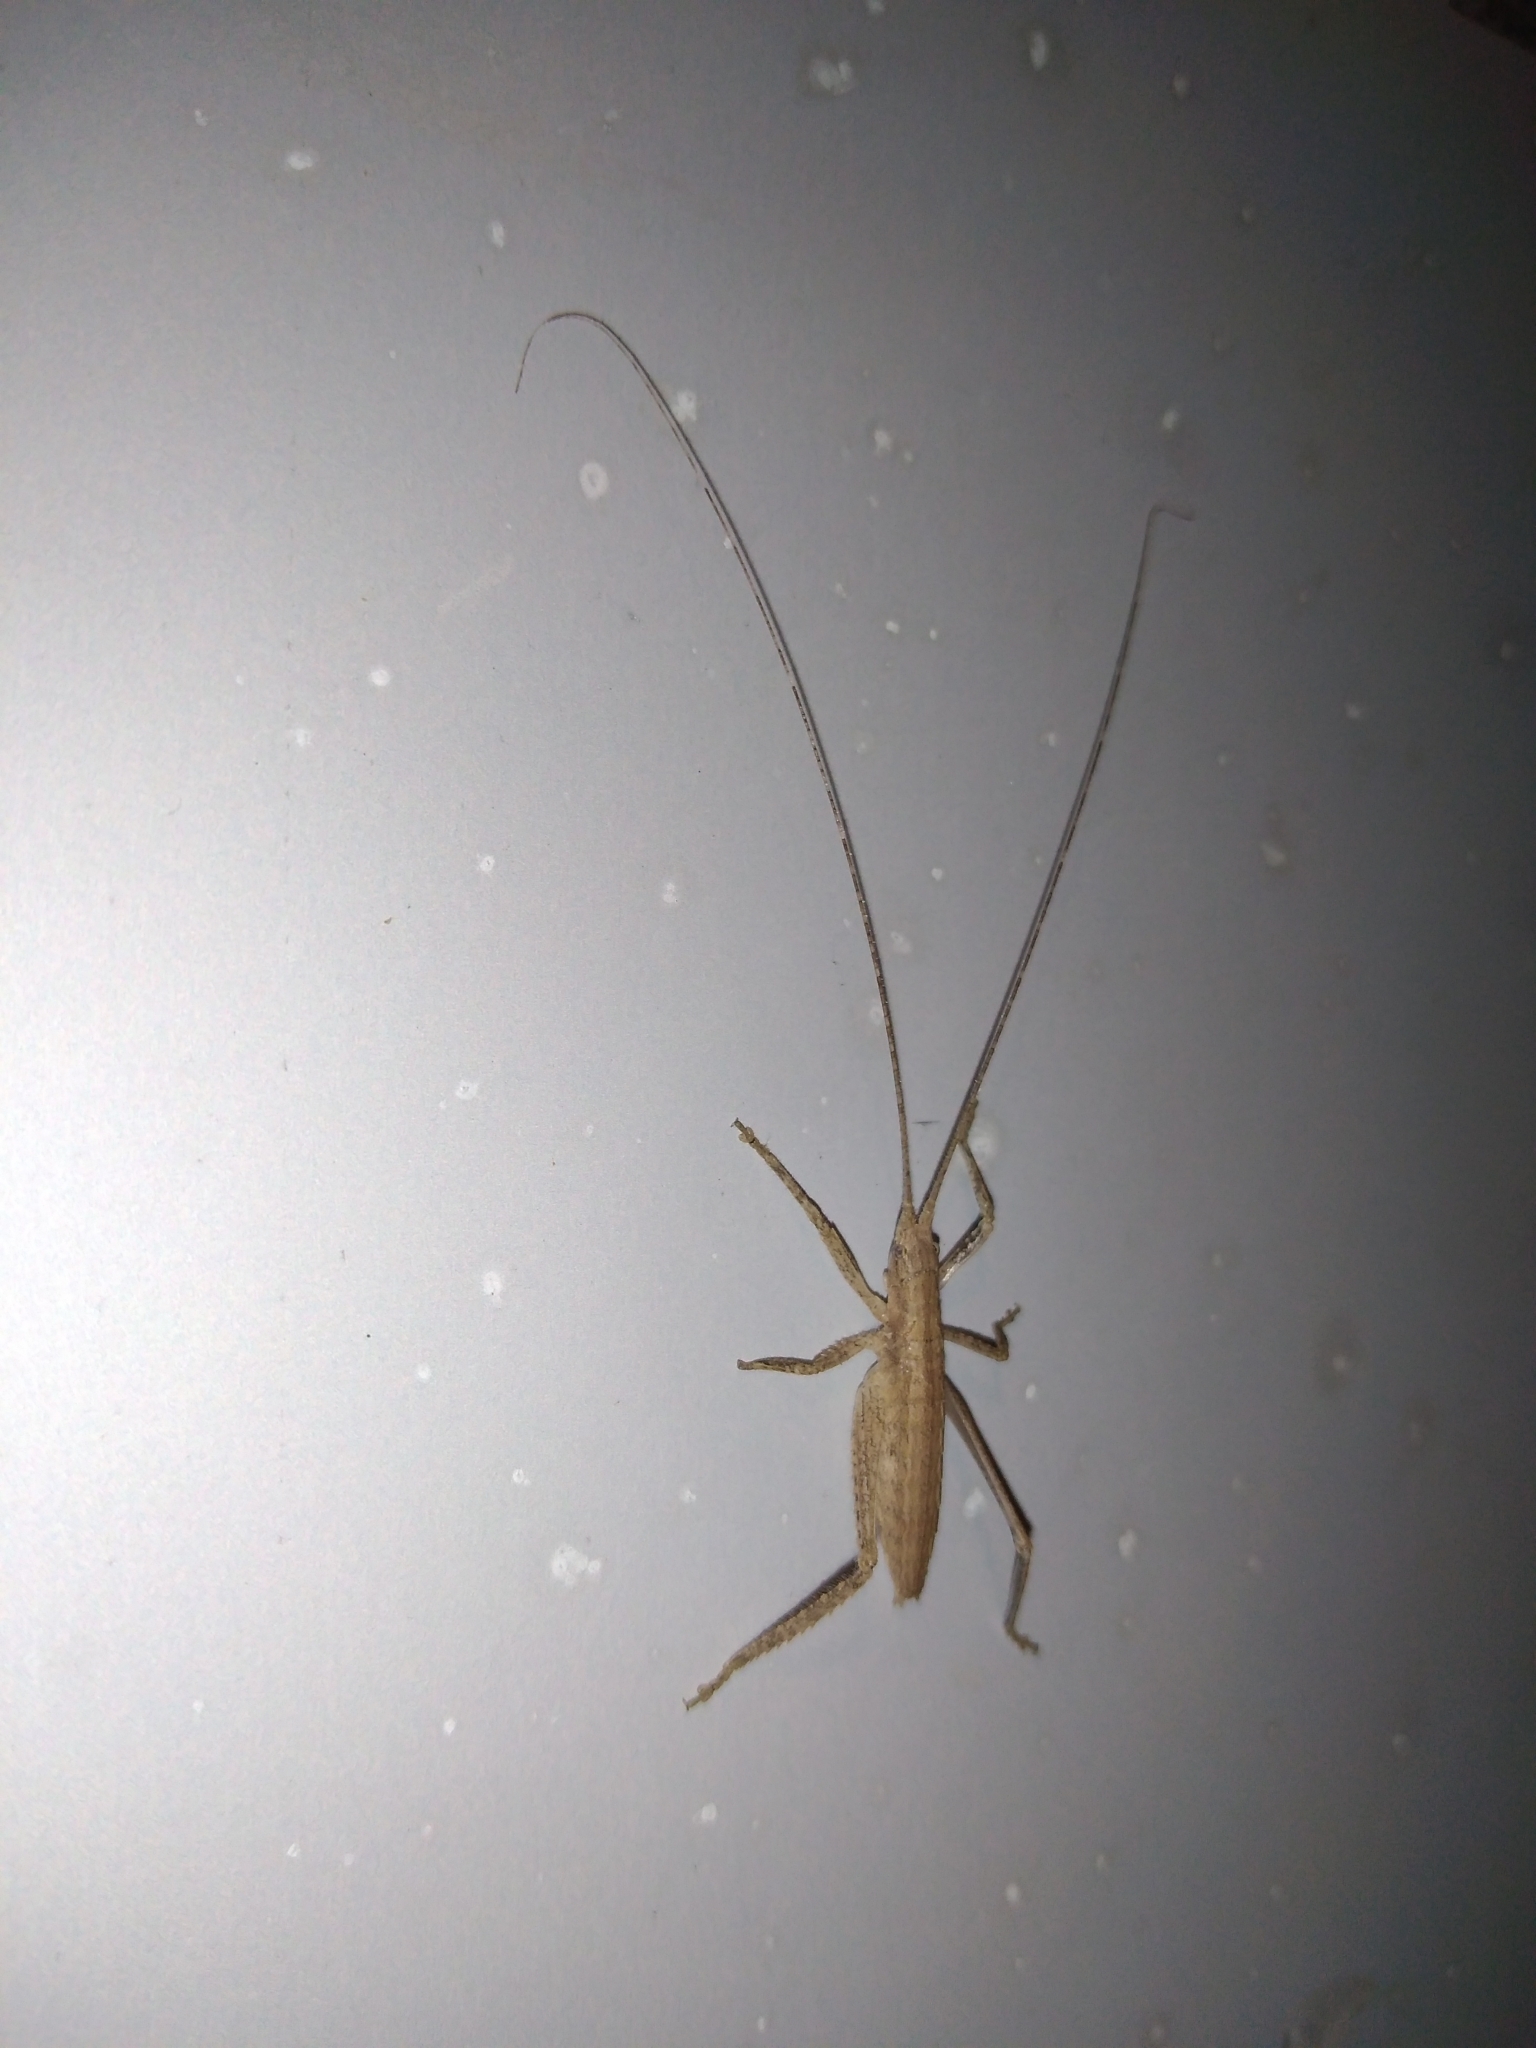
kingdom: Animalia
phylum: Arthropoda
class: Insecta
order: Orthoptera
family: Tettigoniidae
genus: Dasyscelus
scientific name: Dasyscelus normalis
